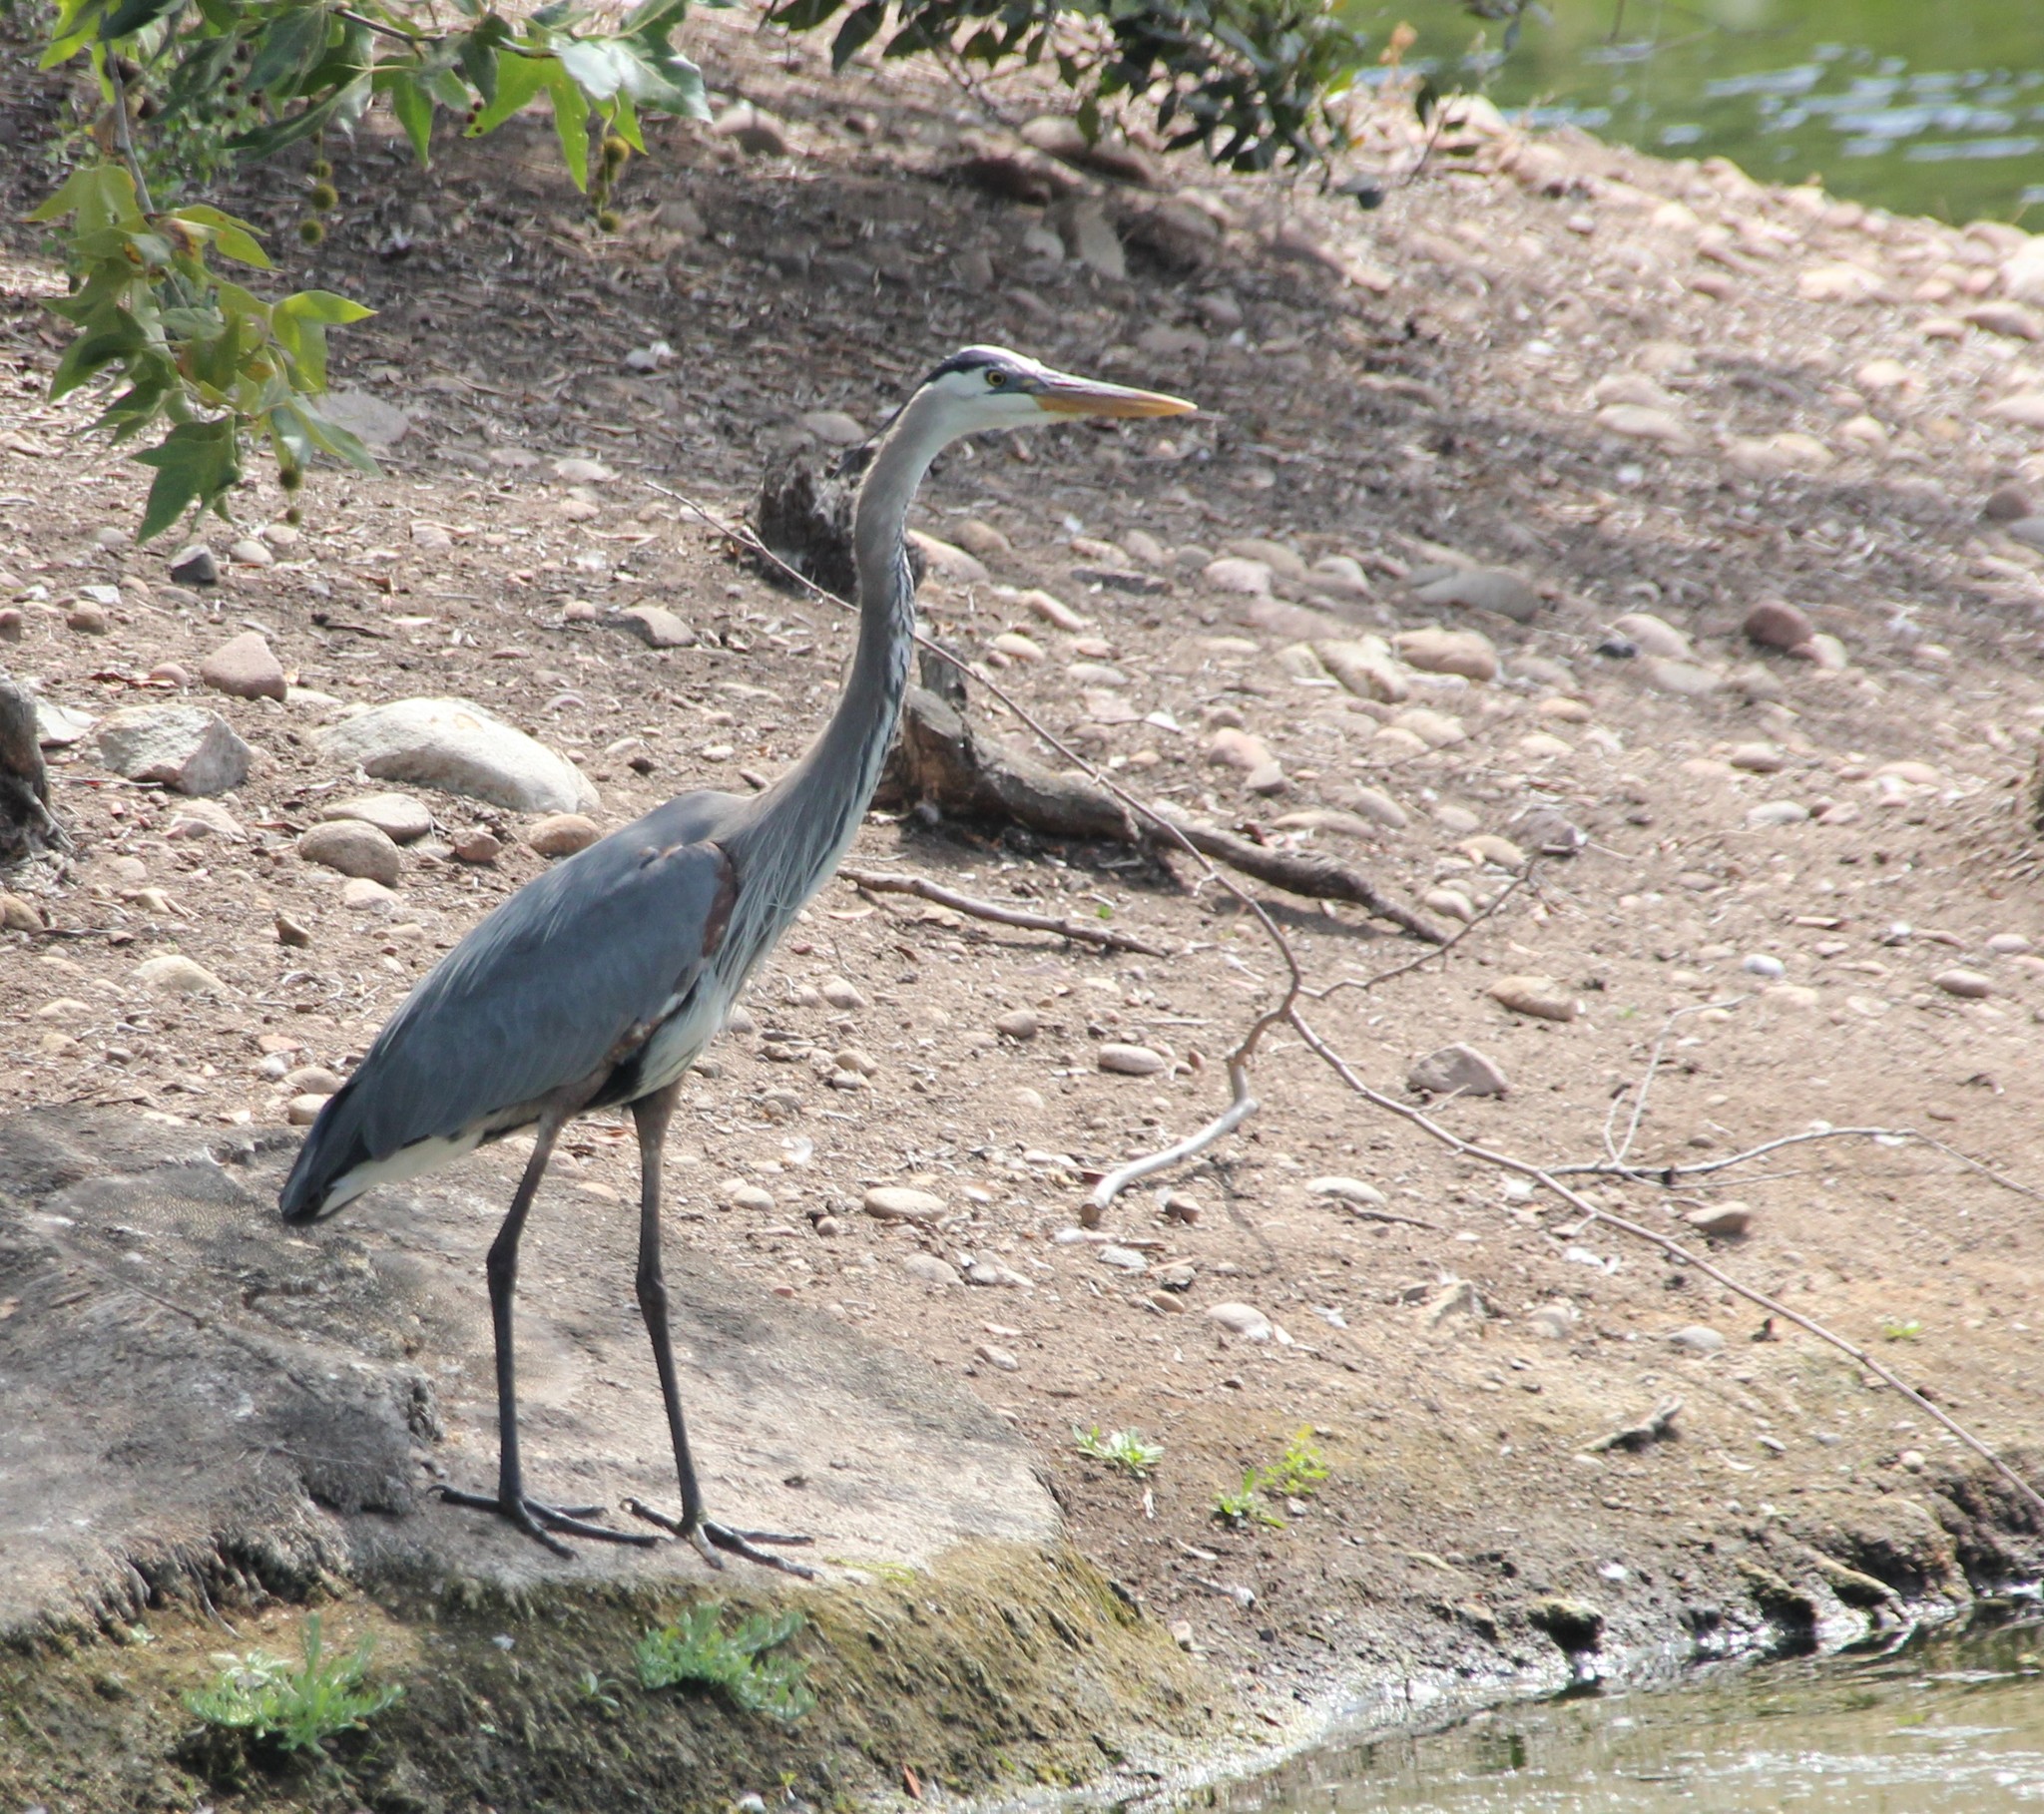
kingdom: Animalia
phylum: Chordata
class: Aves
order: Pelecaniformes
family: Ardeidae
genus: Ardea
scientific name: Ardea herodias
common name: Great blue heron
